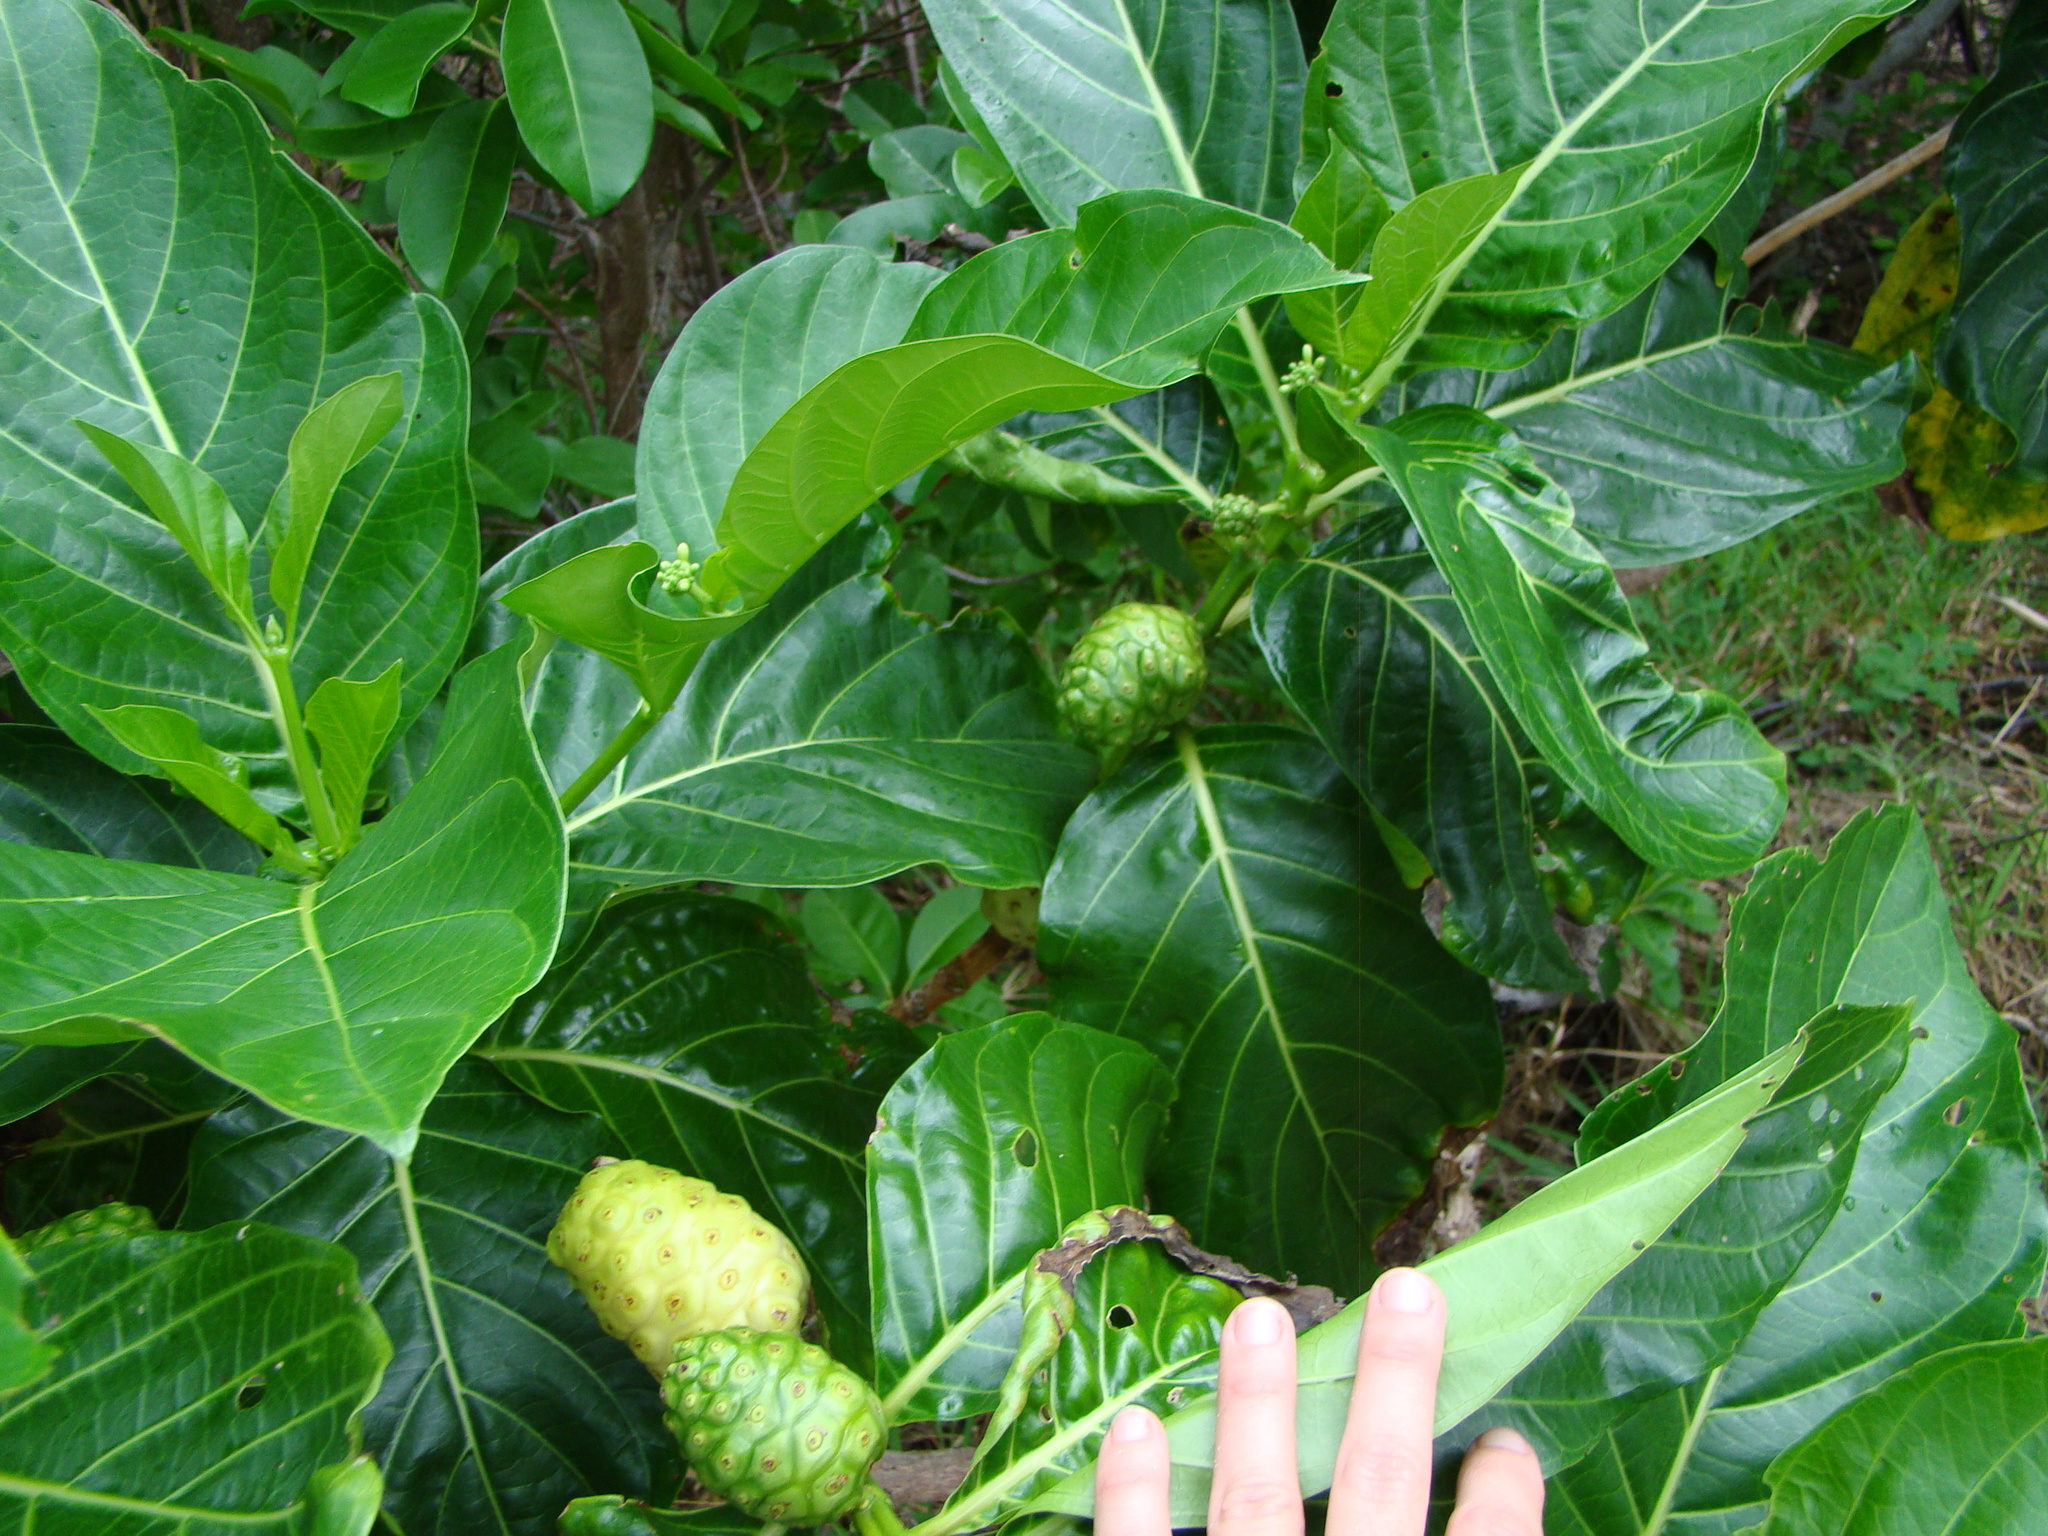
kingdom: Plantae
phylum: Tracheophyta
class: Magnoliopsida
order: Gentianales
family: Rubiaceae
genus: Morinda
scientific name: Morinda citrifolia
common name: Indian-mulberry
